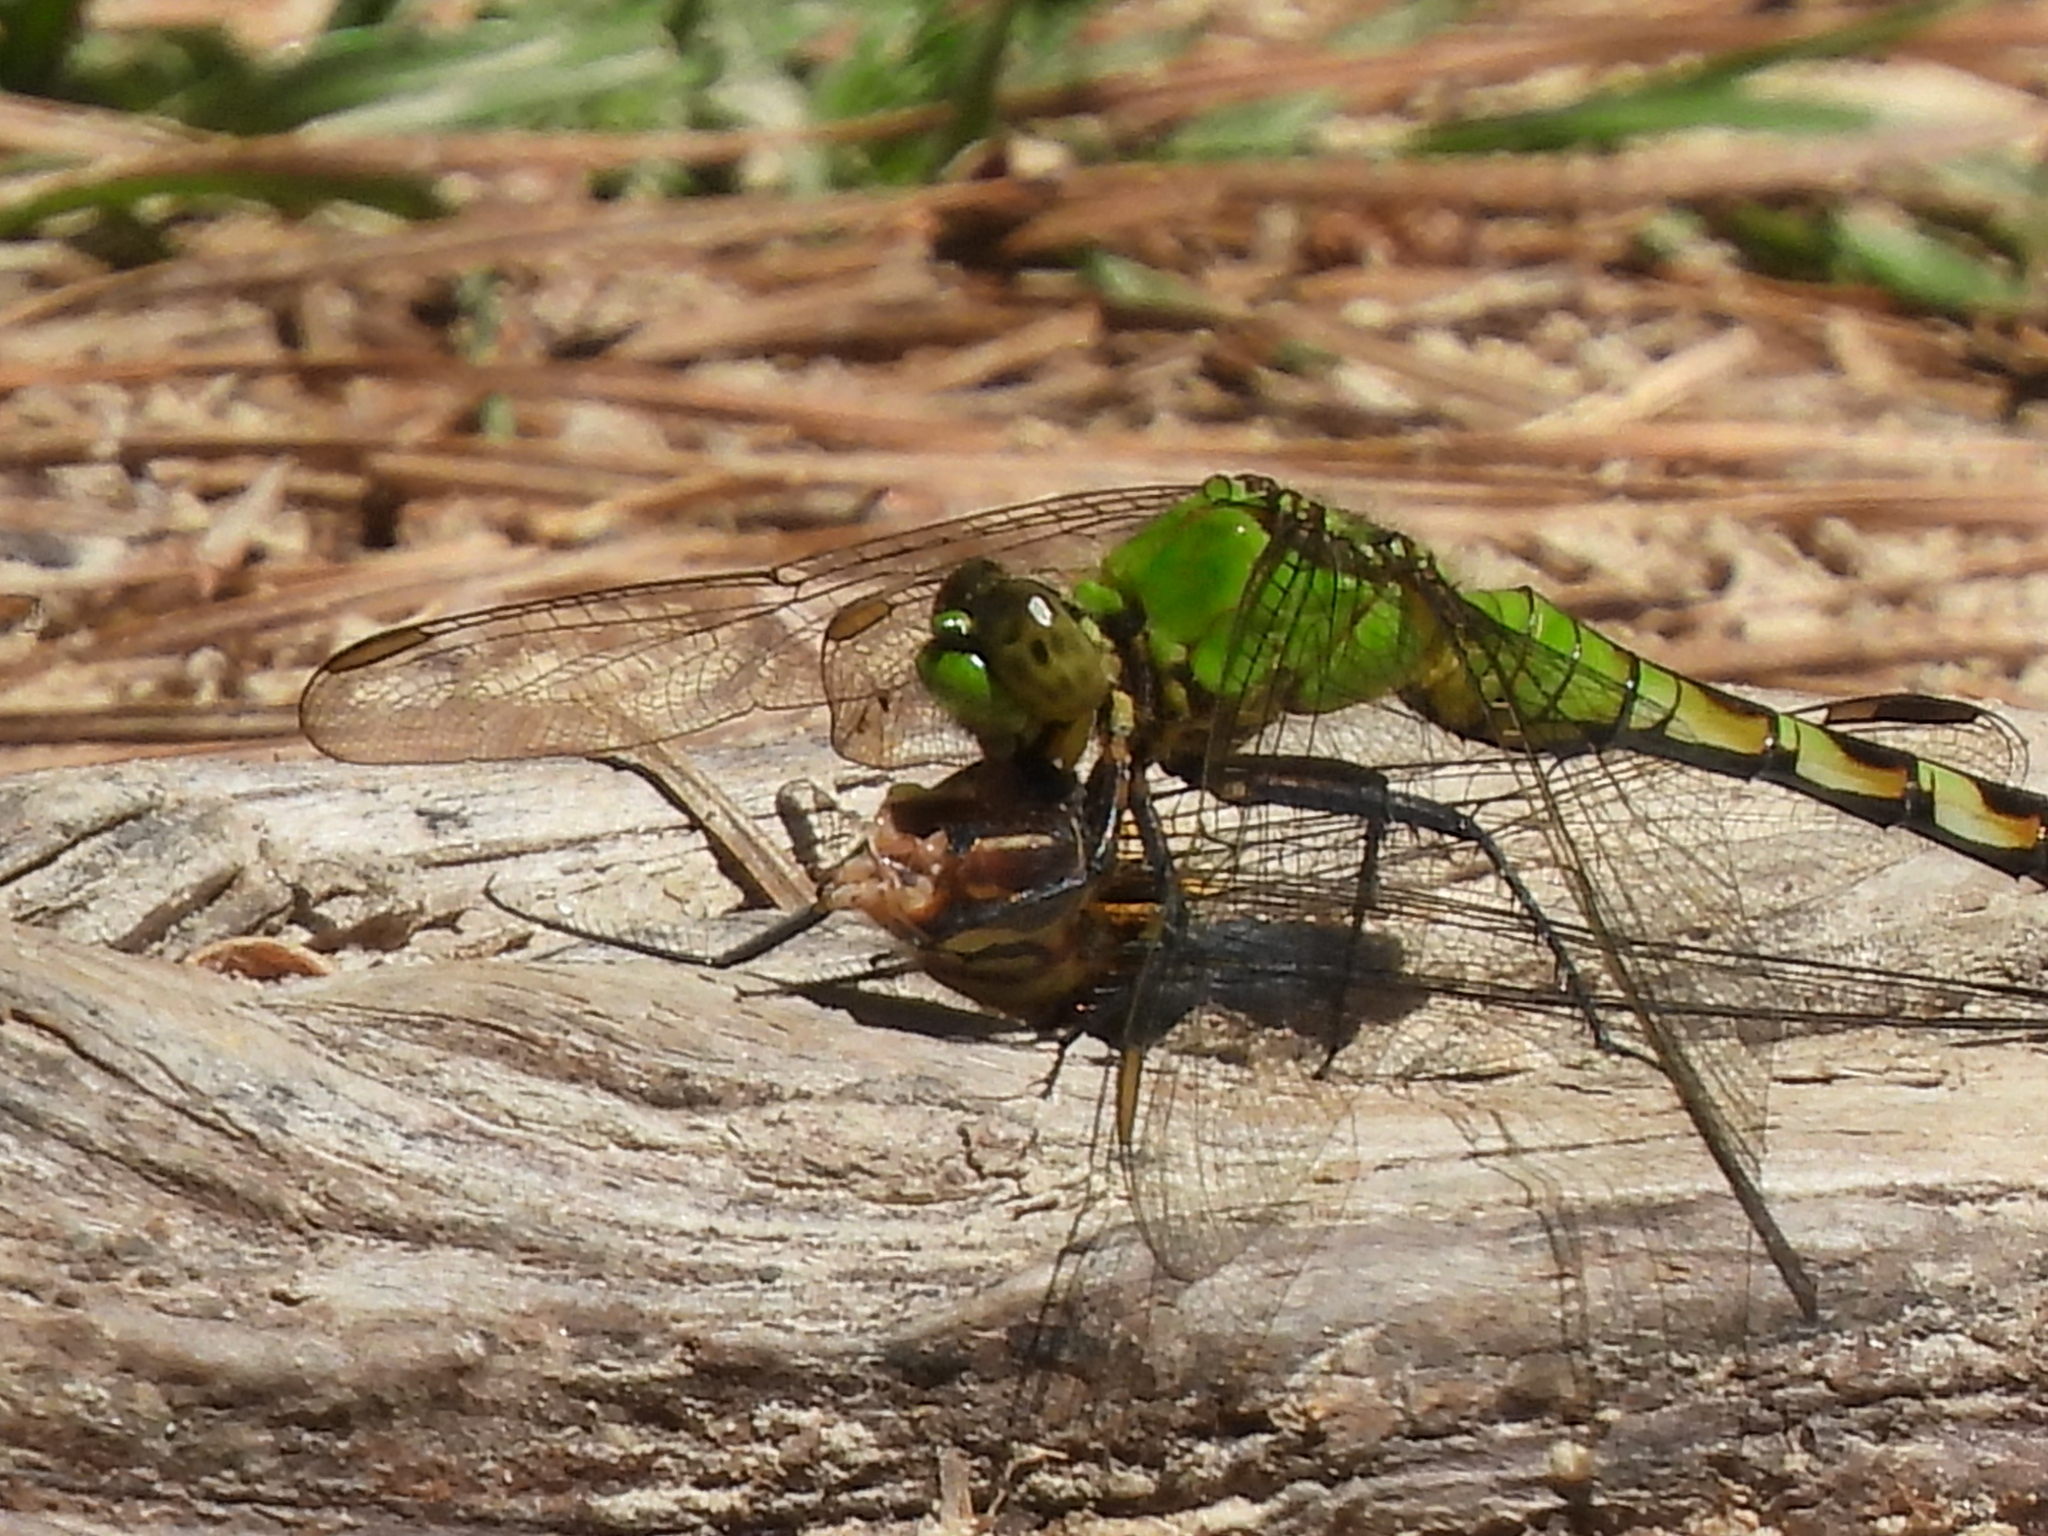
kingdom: Animalia
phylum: Arthropoda
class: Insecta
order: Odonata
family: Libellulidae
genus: Erythemis
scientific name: Erythemis simplicicollis
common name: Eastern pondhawk
